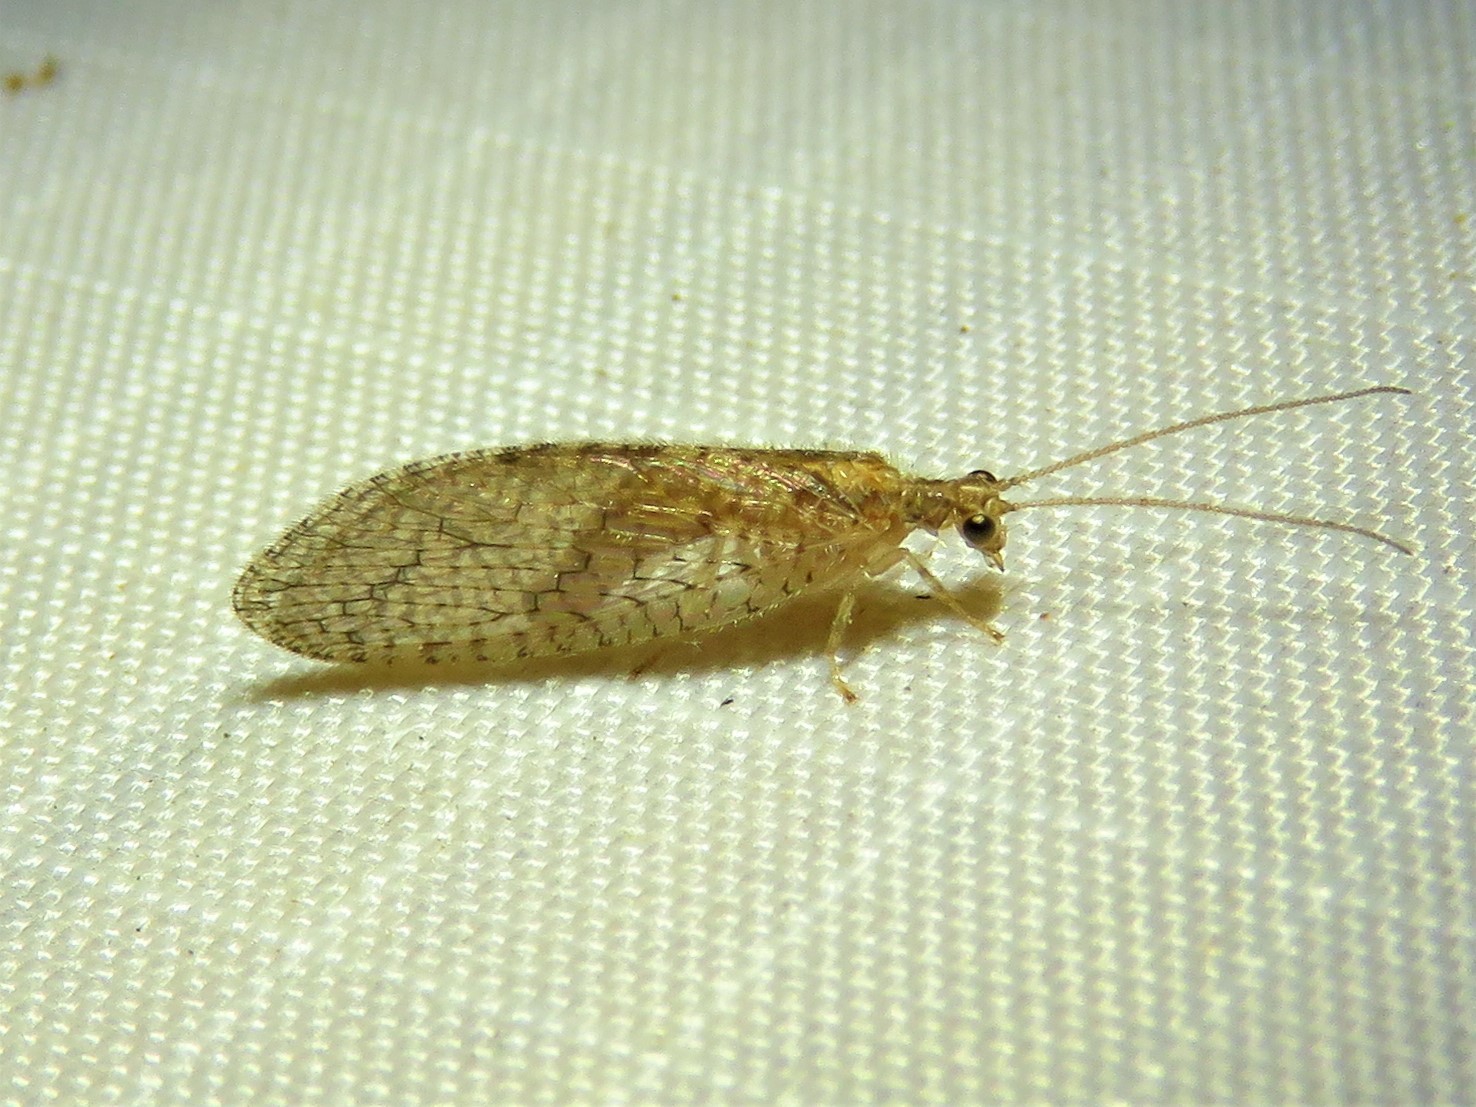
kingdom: Animalia
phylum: Arthropoda
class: Insecta
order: Neuroptera
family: Hemerobiidae
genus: Micromus
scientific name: Micromus posticus
